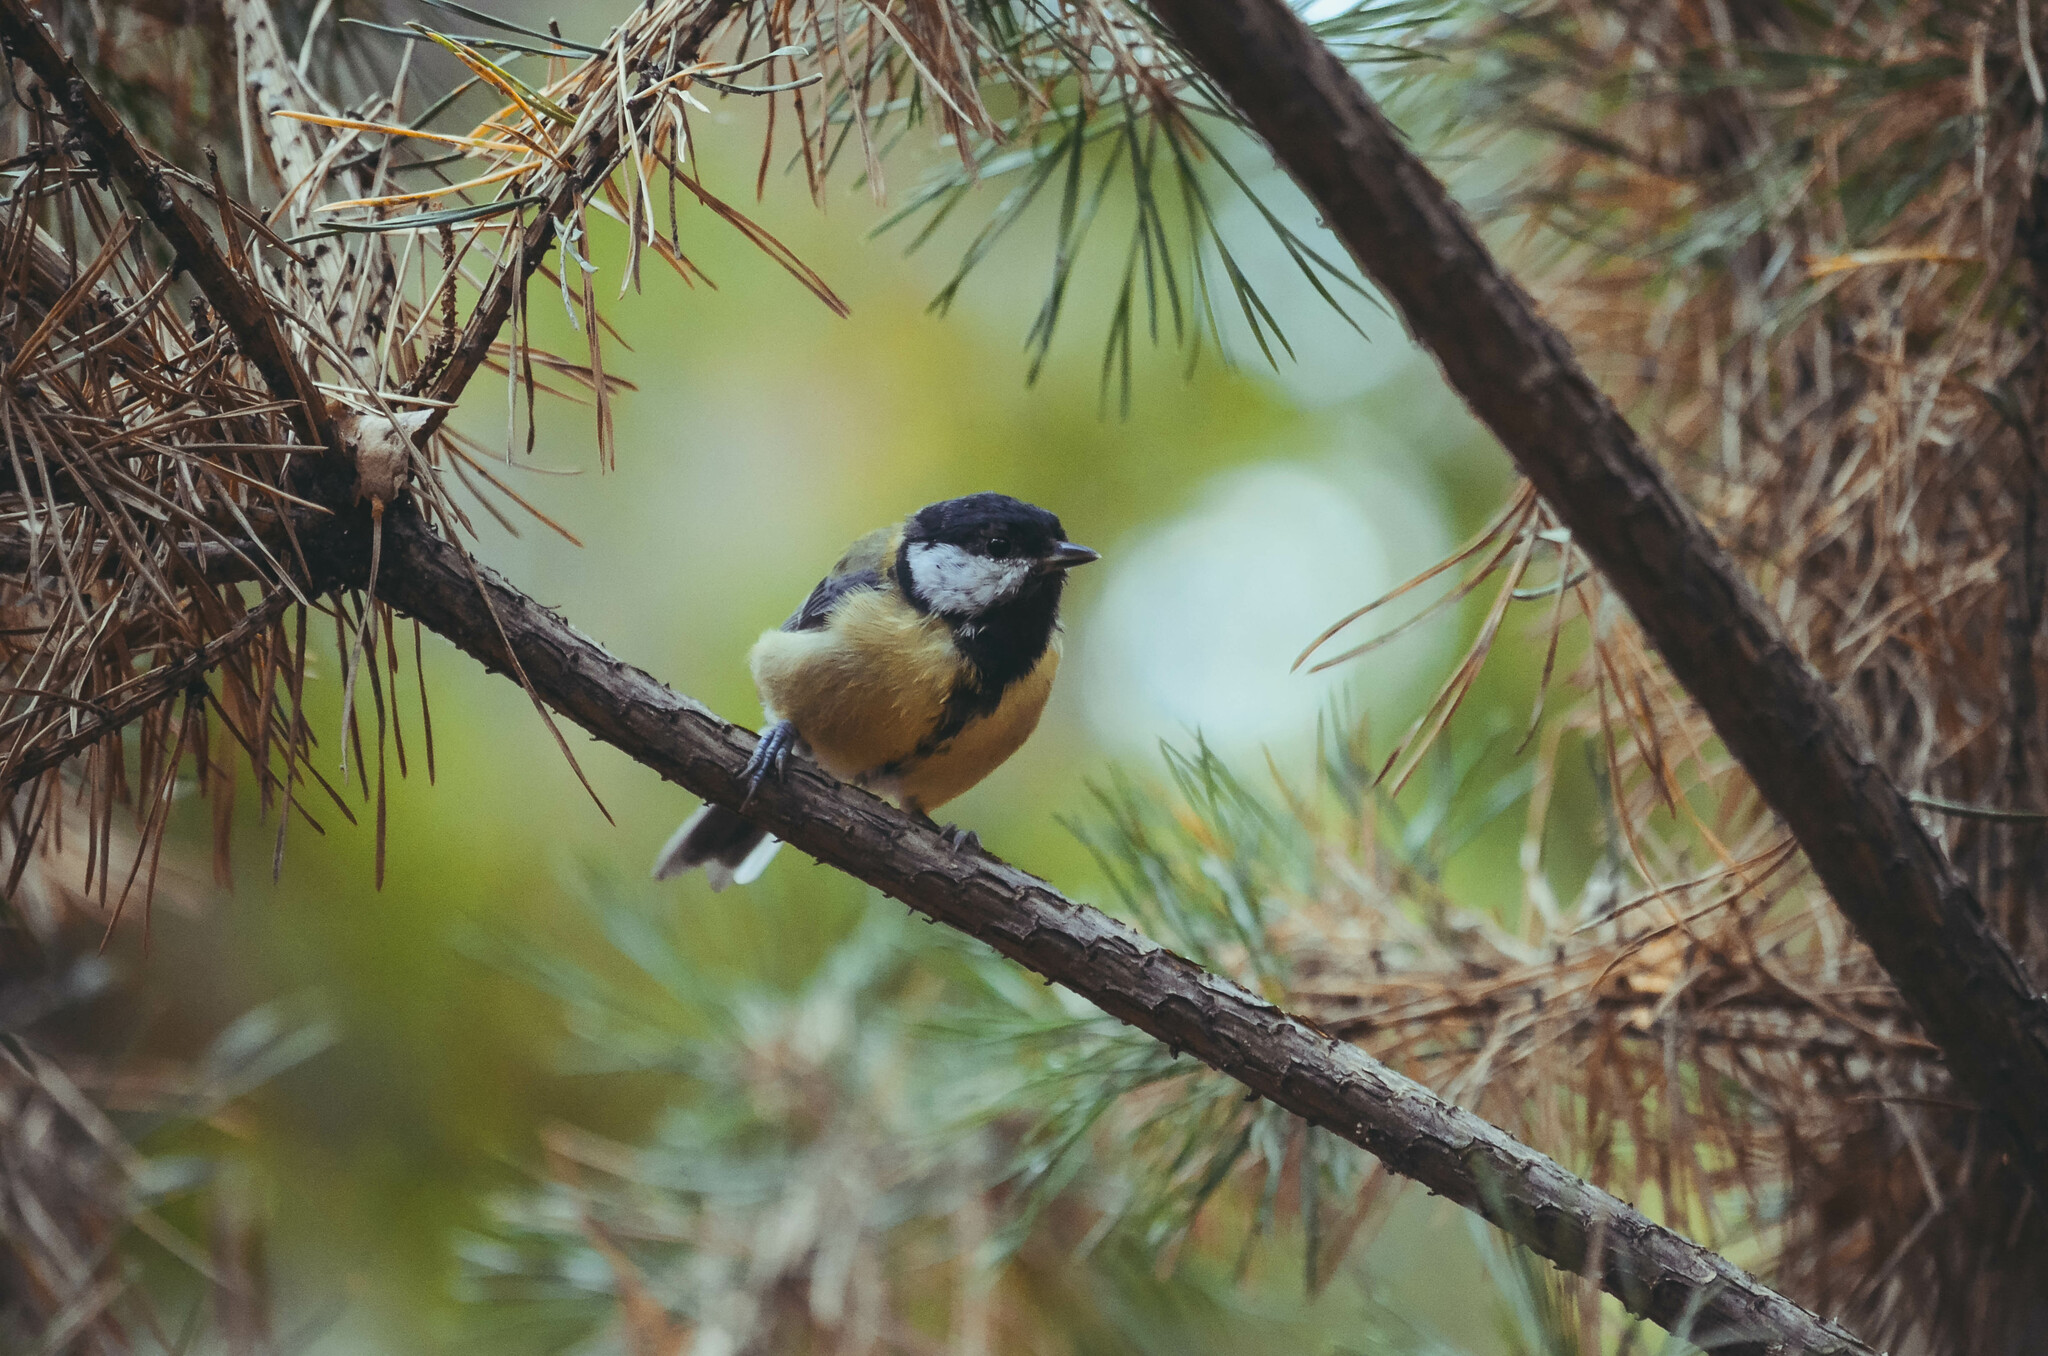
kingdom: Animalia
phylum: Chordata
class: Aves
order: Passeriformes
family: Paridae
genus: Parus
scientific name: Parus major
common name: Great tit
